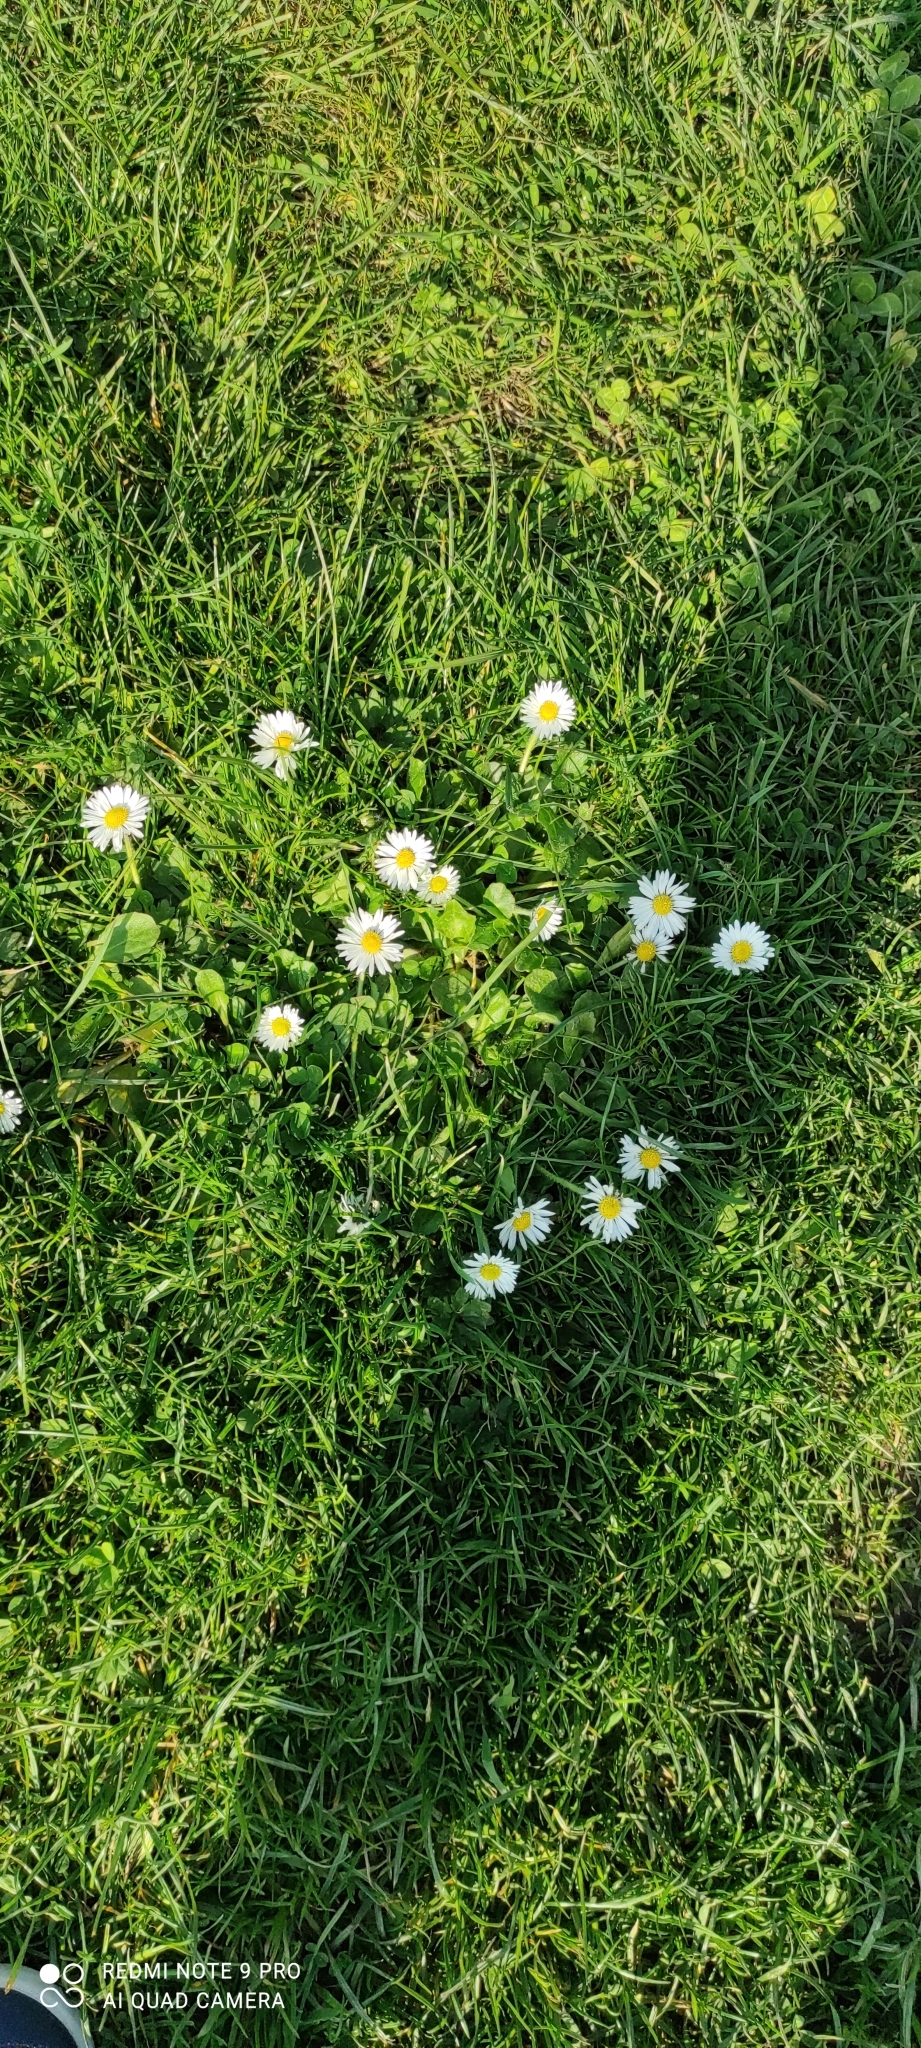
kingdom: Plantae
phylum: Tracheophyta
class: Magnoliopsida
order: Asterales
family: Asteraceae
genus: Bellis
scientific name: Bellis perennis
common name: Lawndaisy
